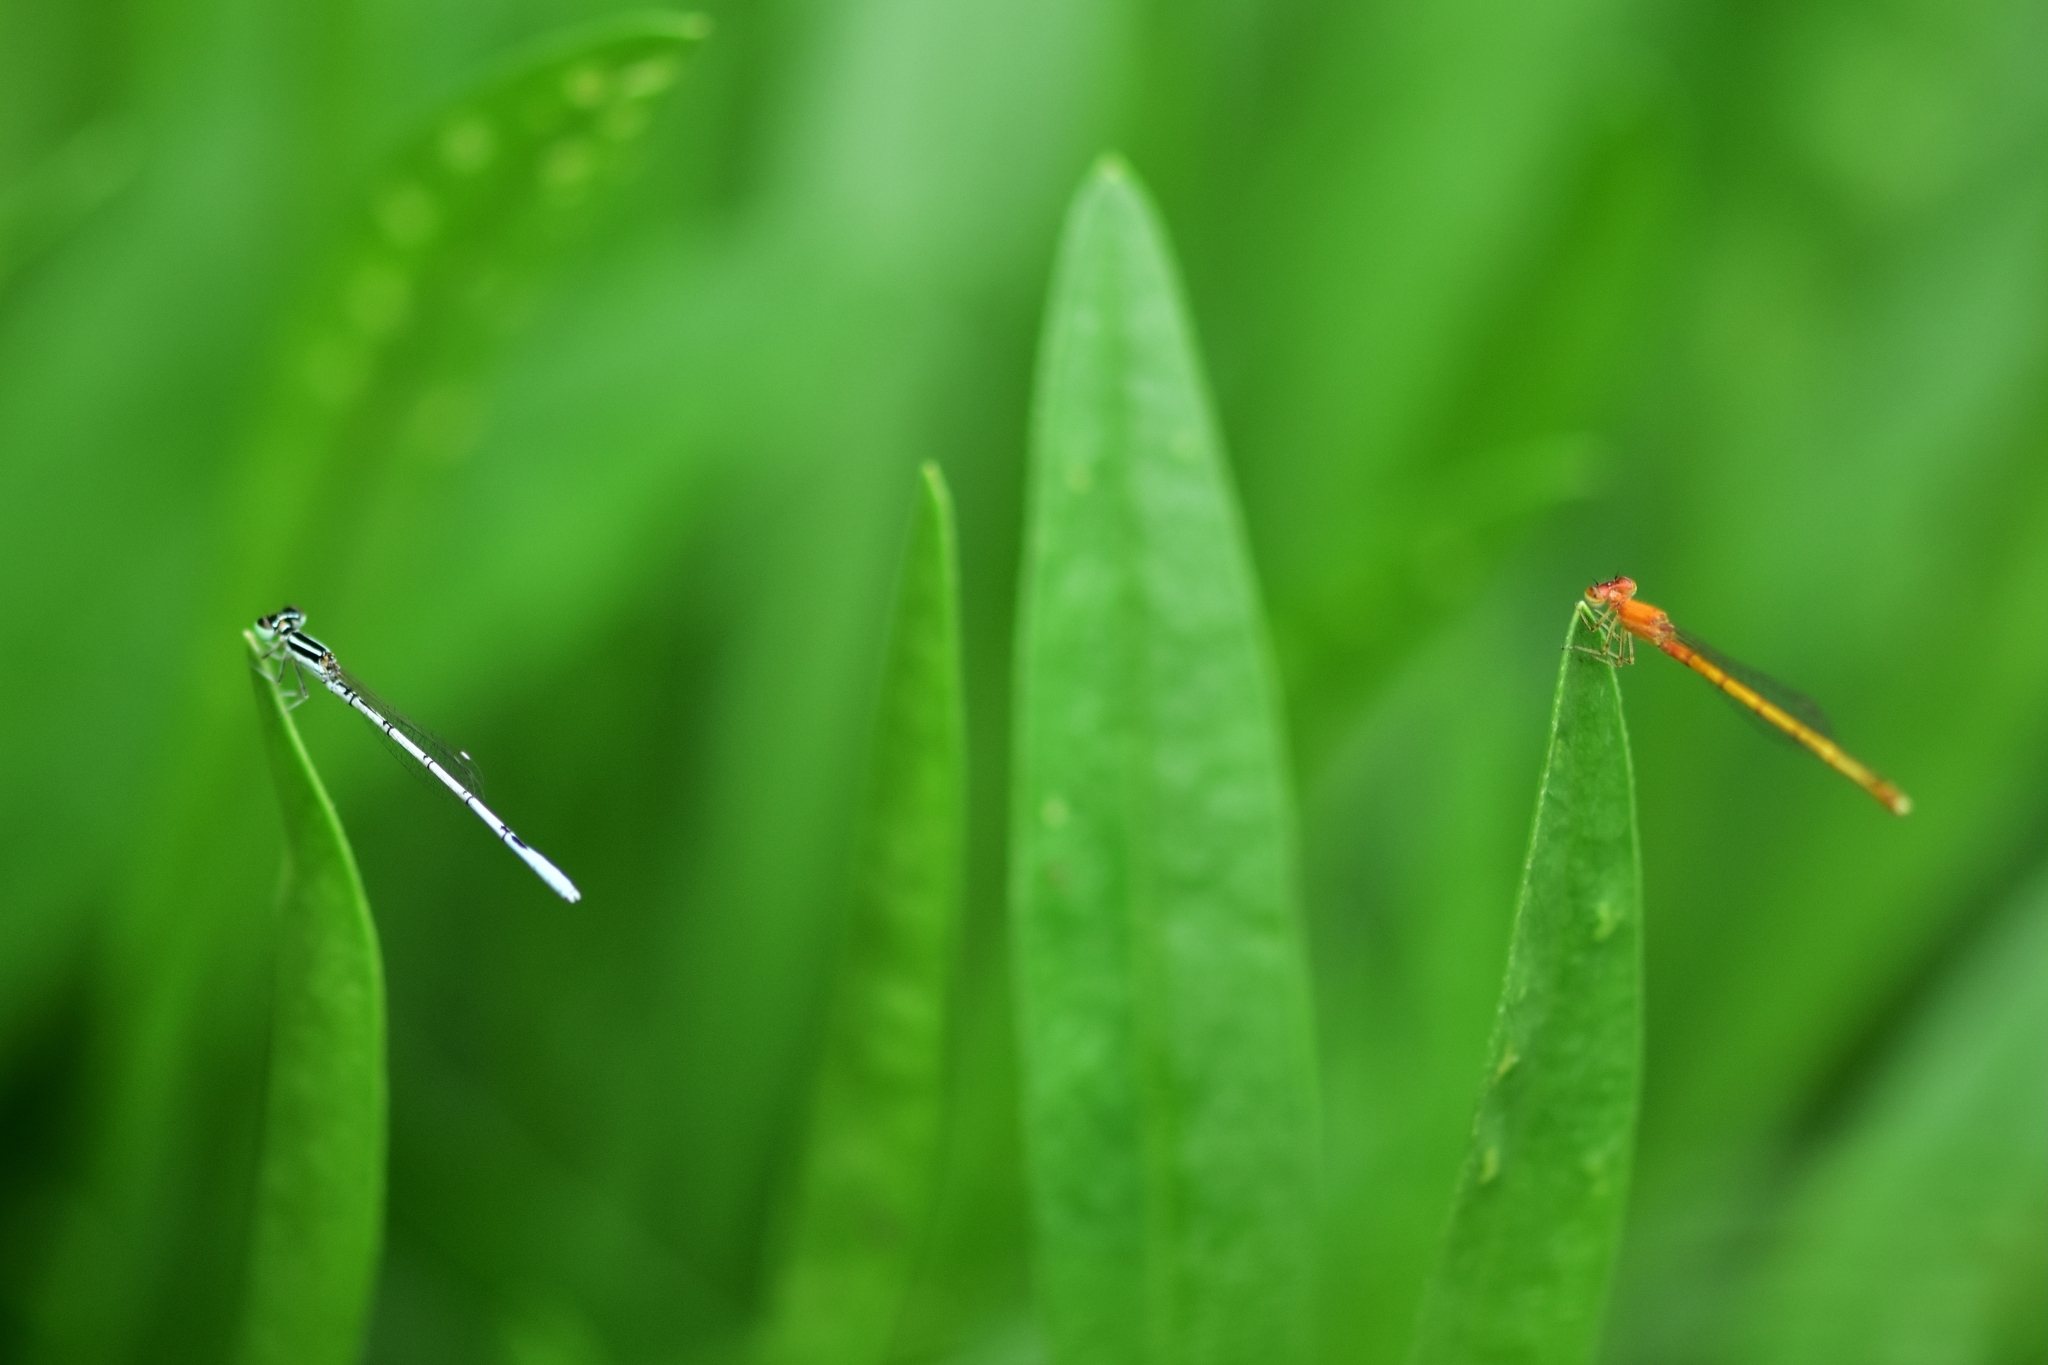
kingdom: Animalia
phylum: Arthropoda
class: Insecta
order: Odonata
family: Coenagrionidae
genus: Agriocnemis
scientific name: Agriocnemis pieris
